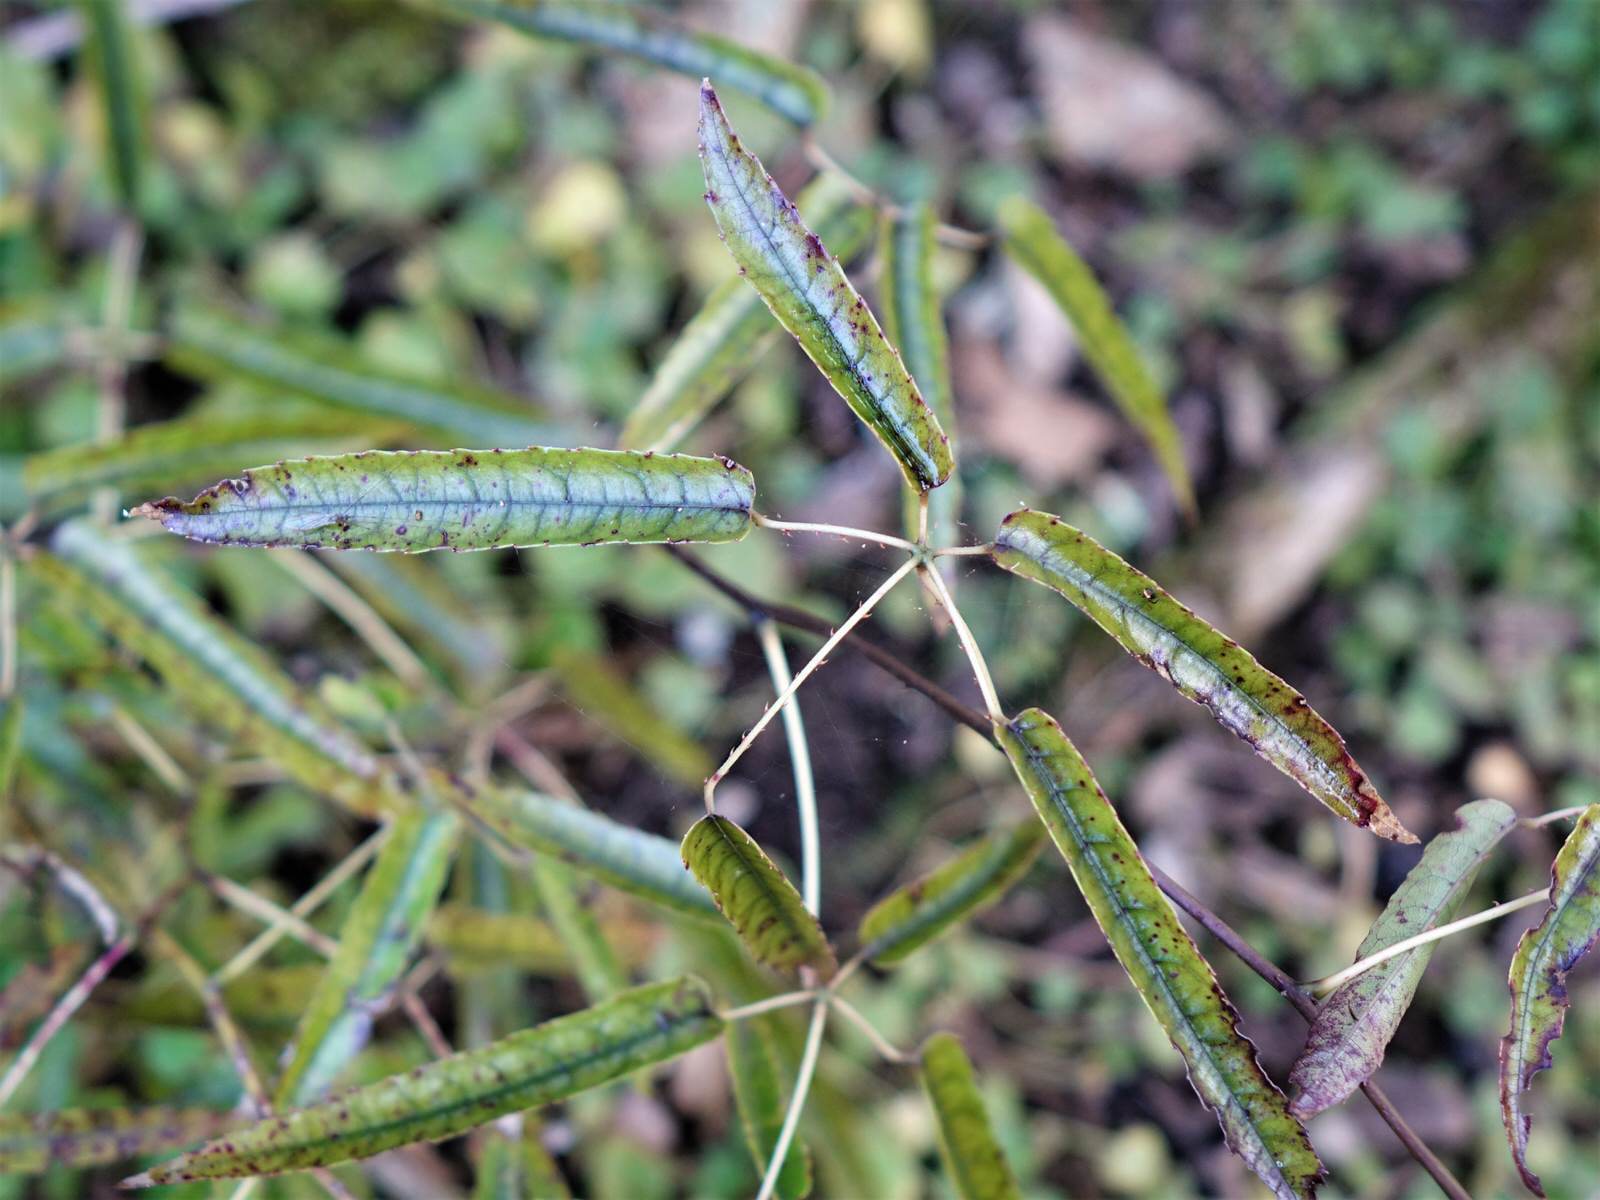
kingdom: Plantae
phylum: Tracheophyta
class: Magnoliopsida
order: Rosales
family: Rosaceae
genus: Rubus
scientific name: Rubus cissoides
